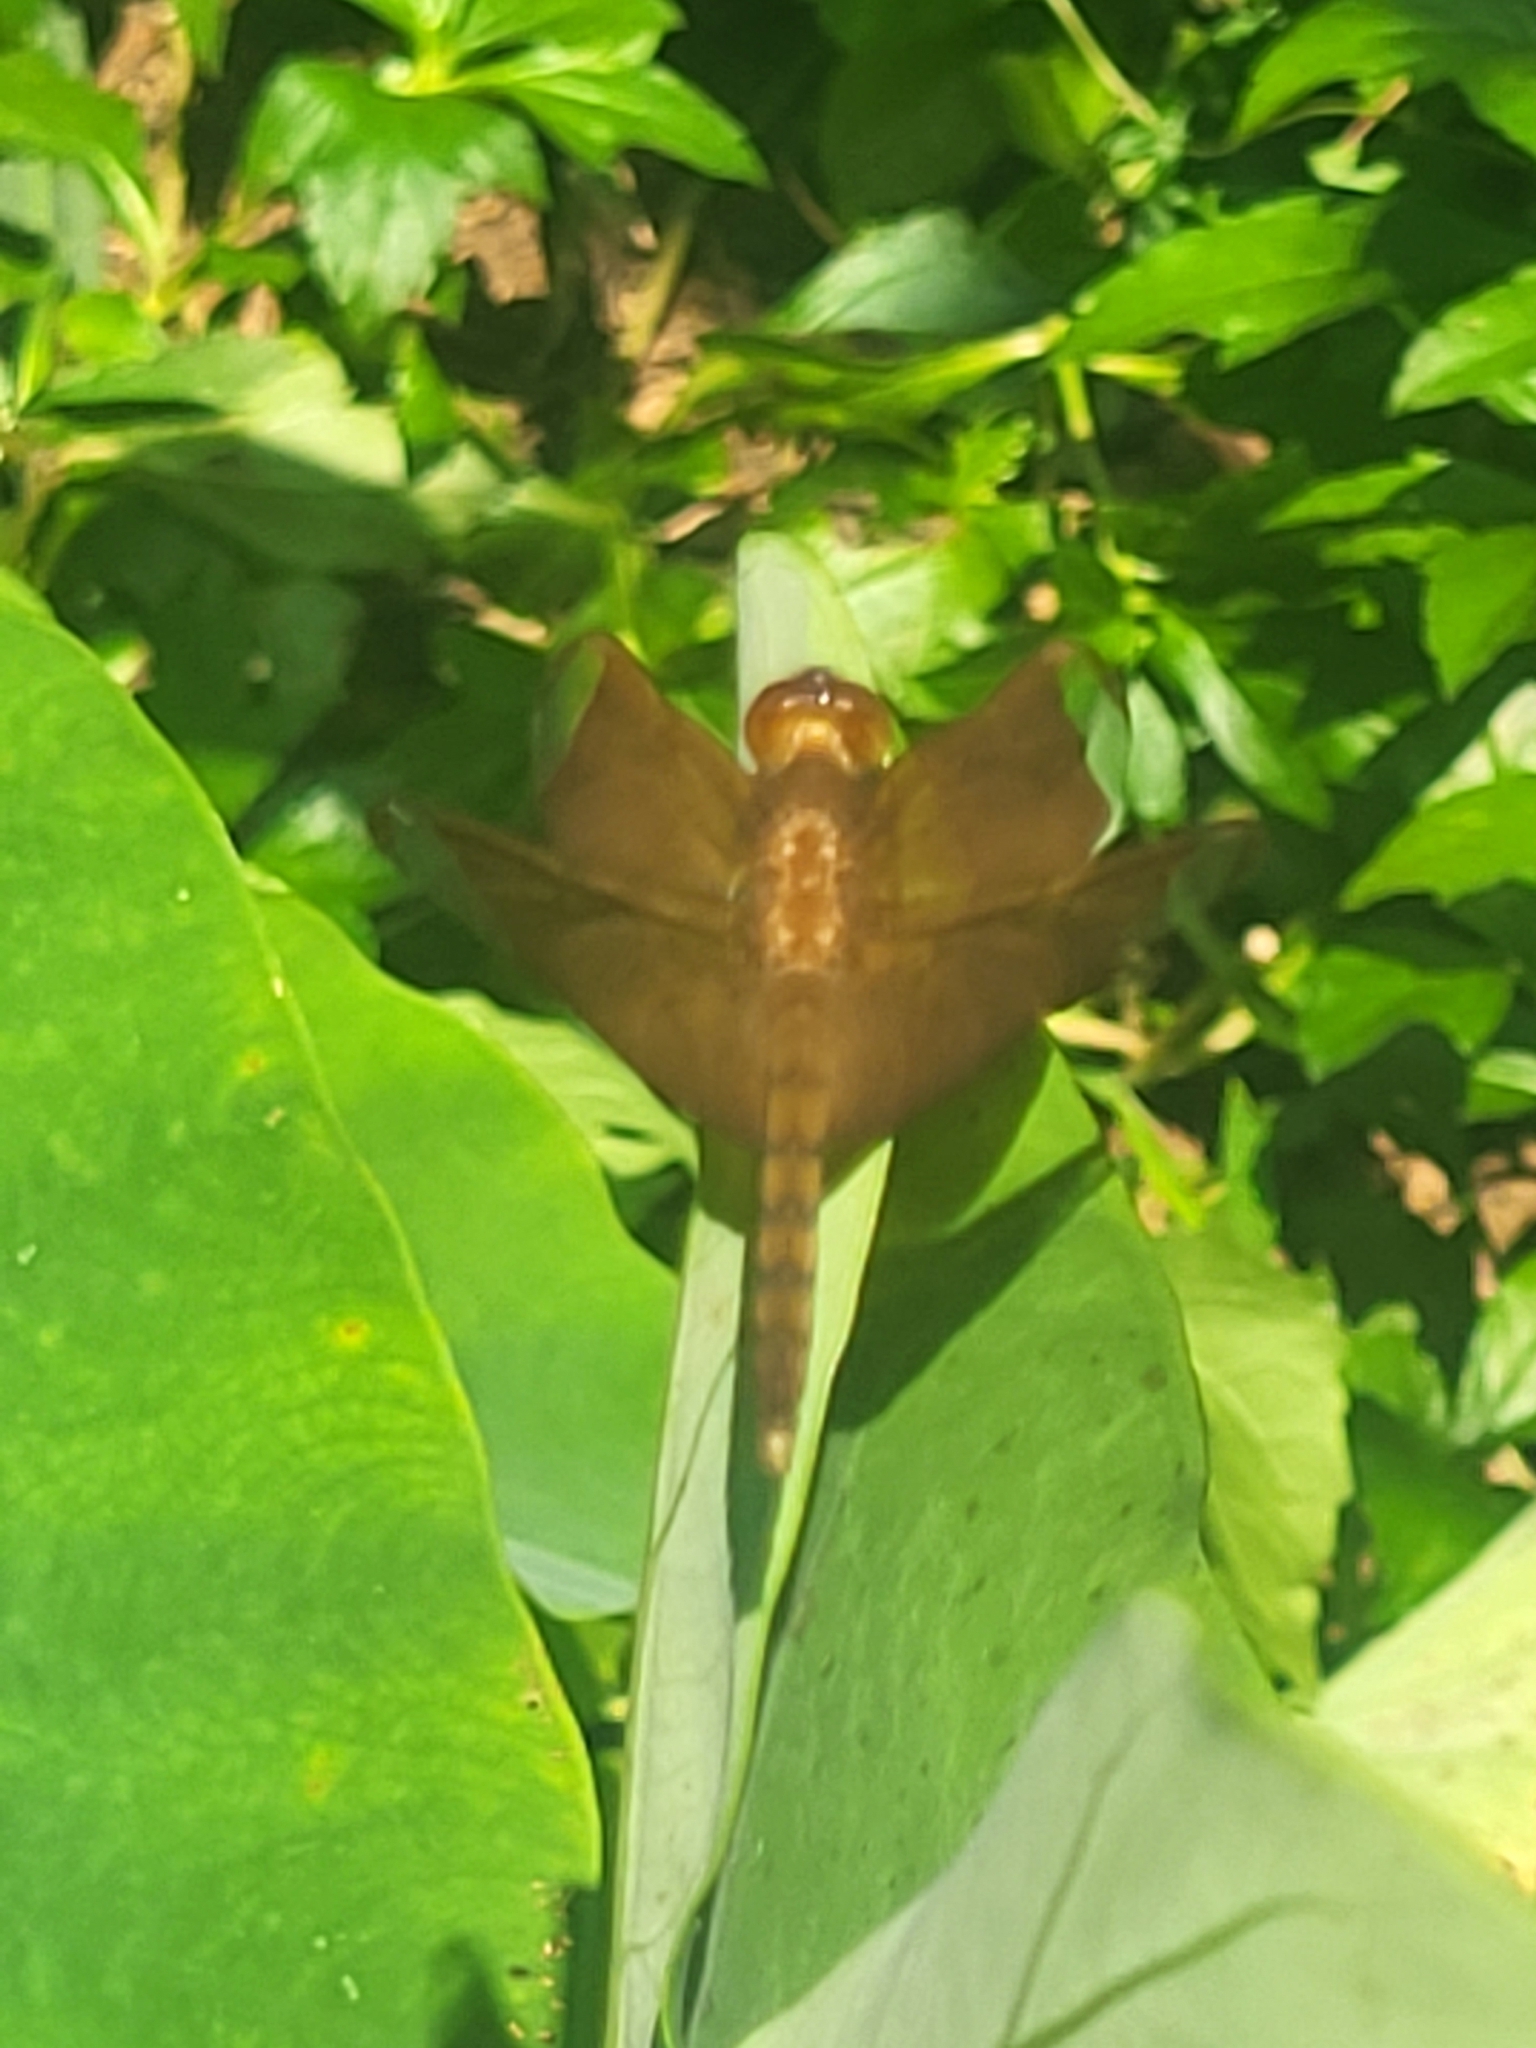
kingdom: Animalia
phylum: Arthropoda
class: Insecta
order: Odonata
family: Libellulidae
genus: Neurothemis
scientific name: Neurothemis fulvia
